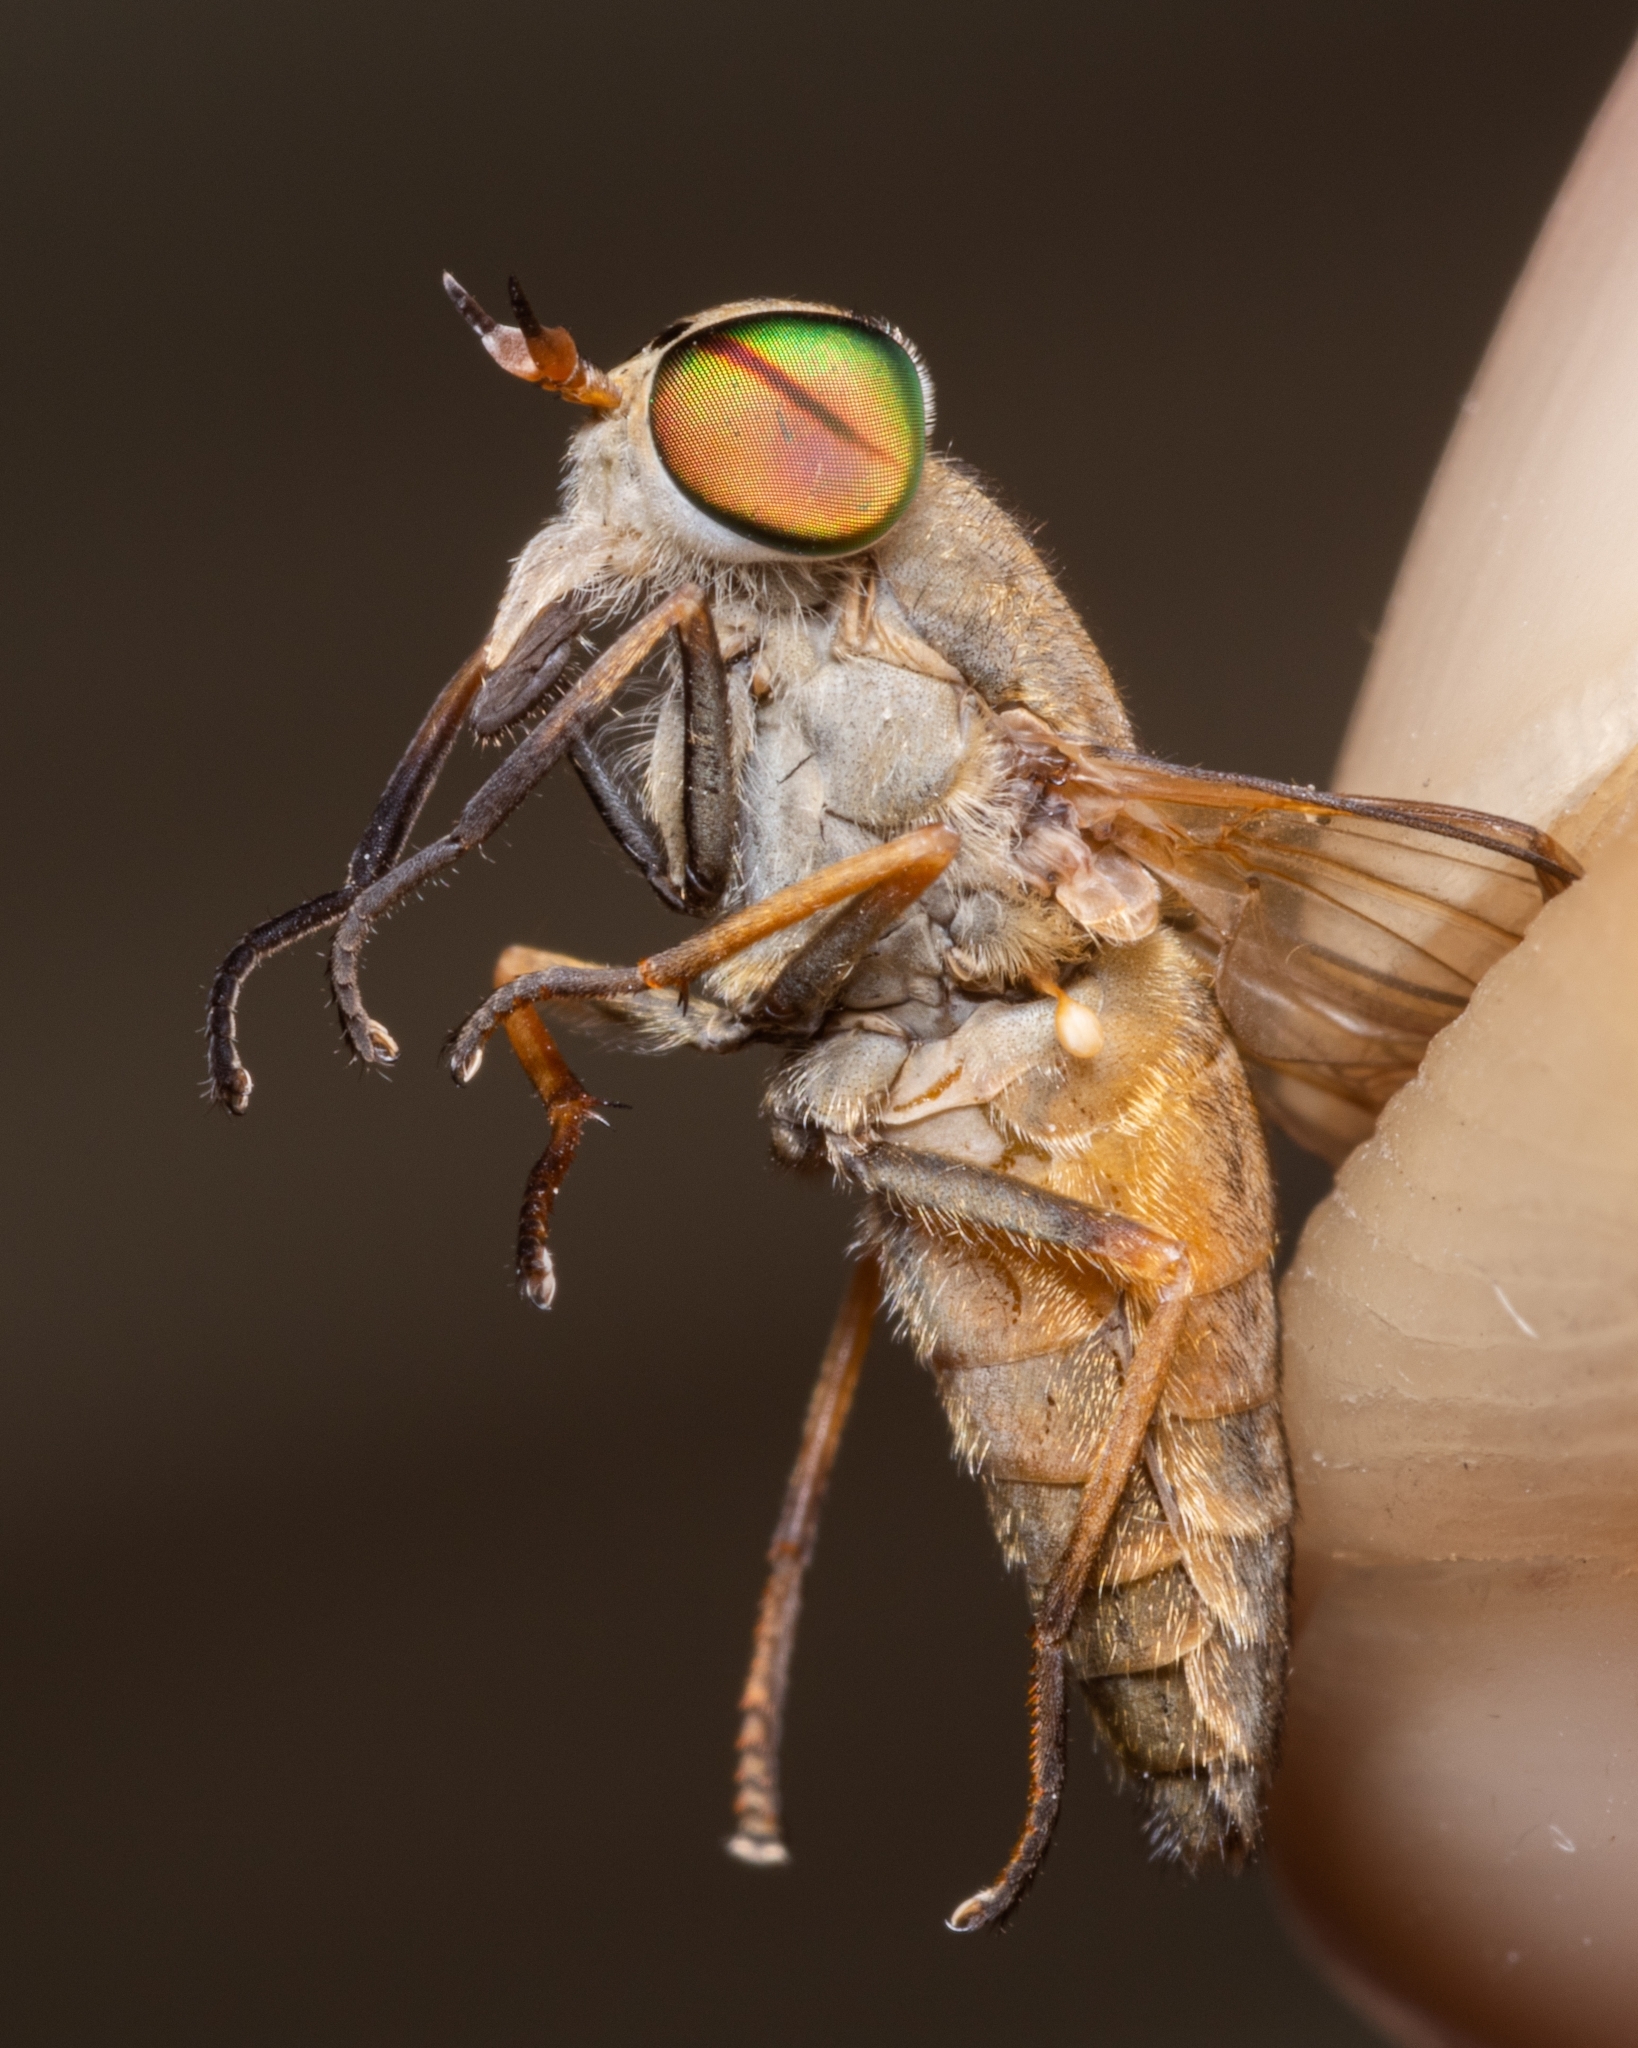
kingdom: Animalia
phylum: Arthropoda
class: Insecta
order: Diptera
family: Tabanidae
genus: Tabanus
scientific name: Tabanus
